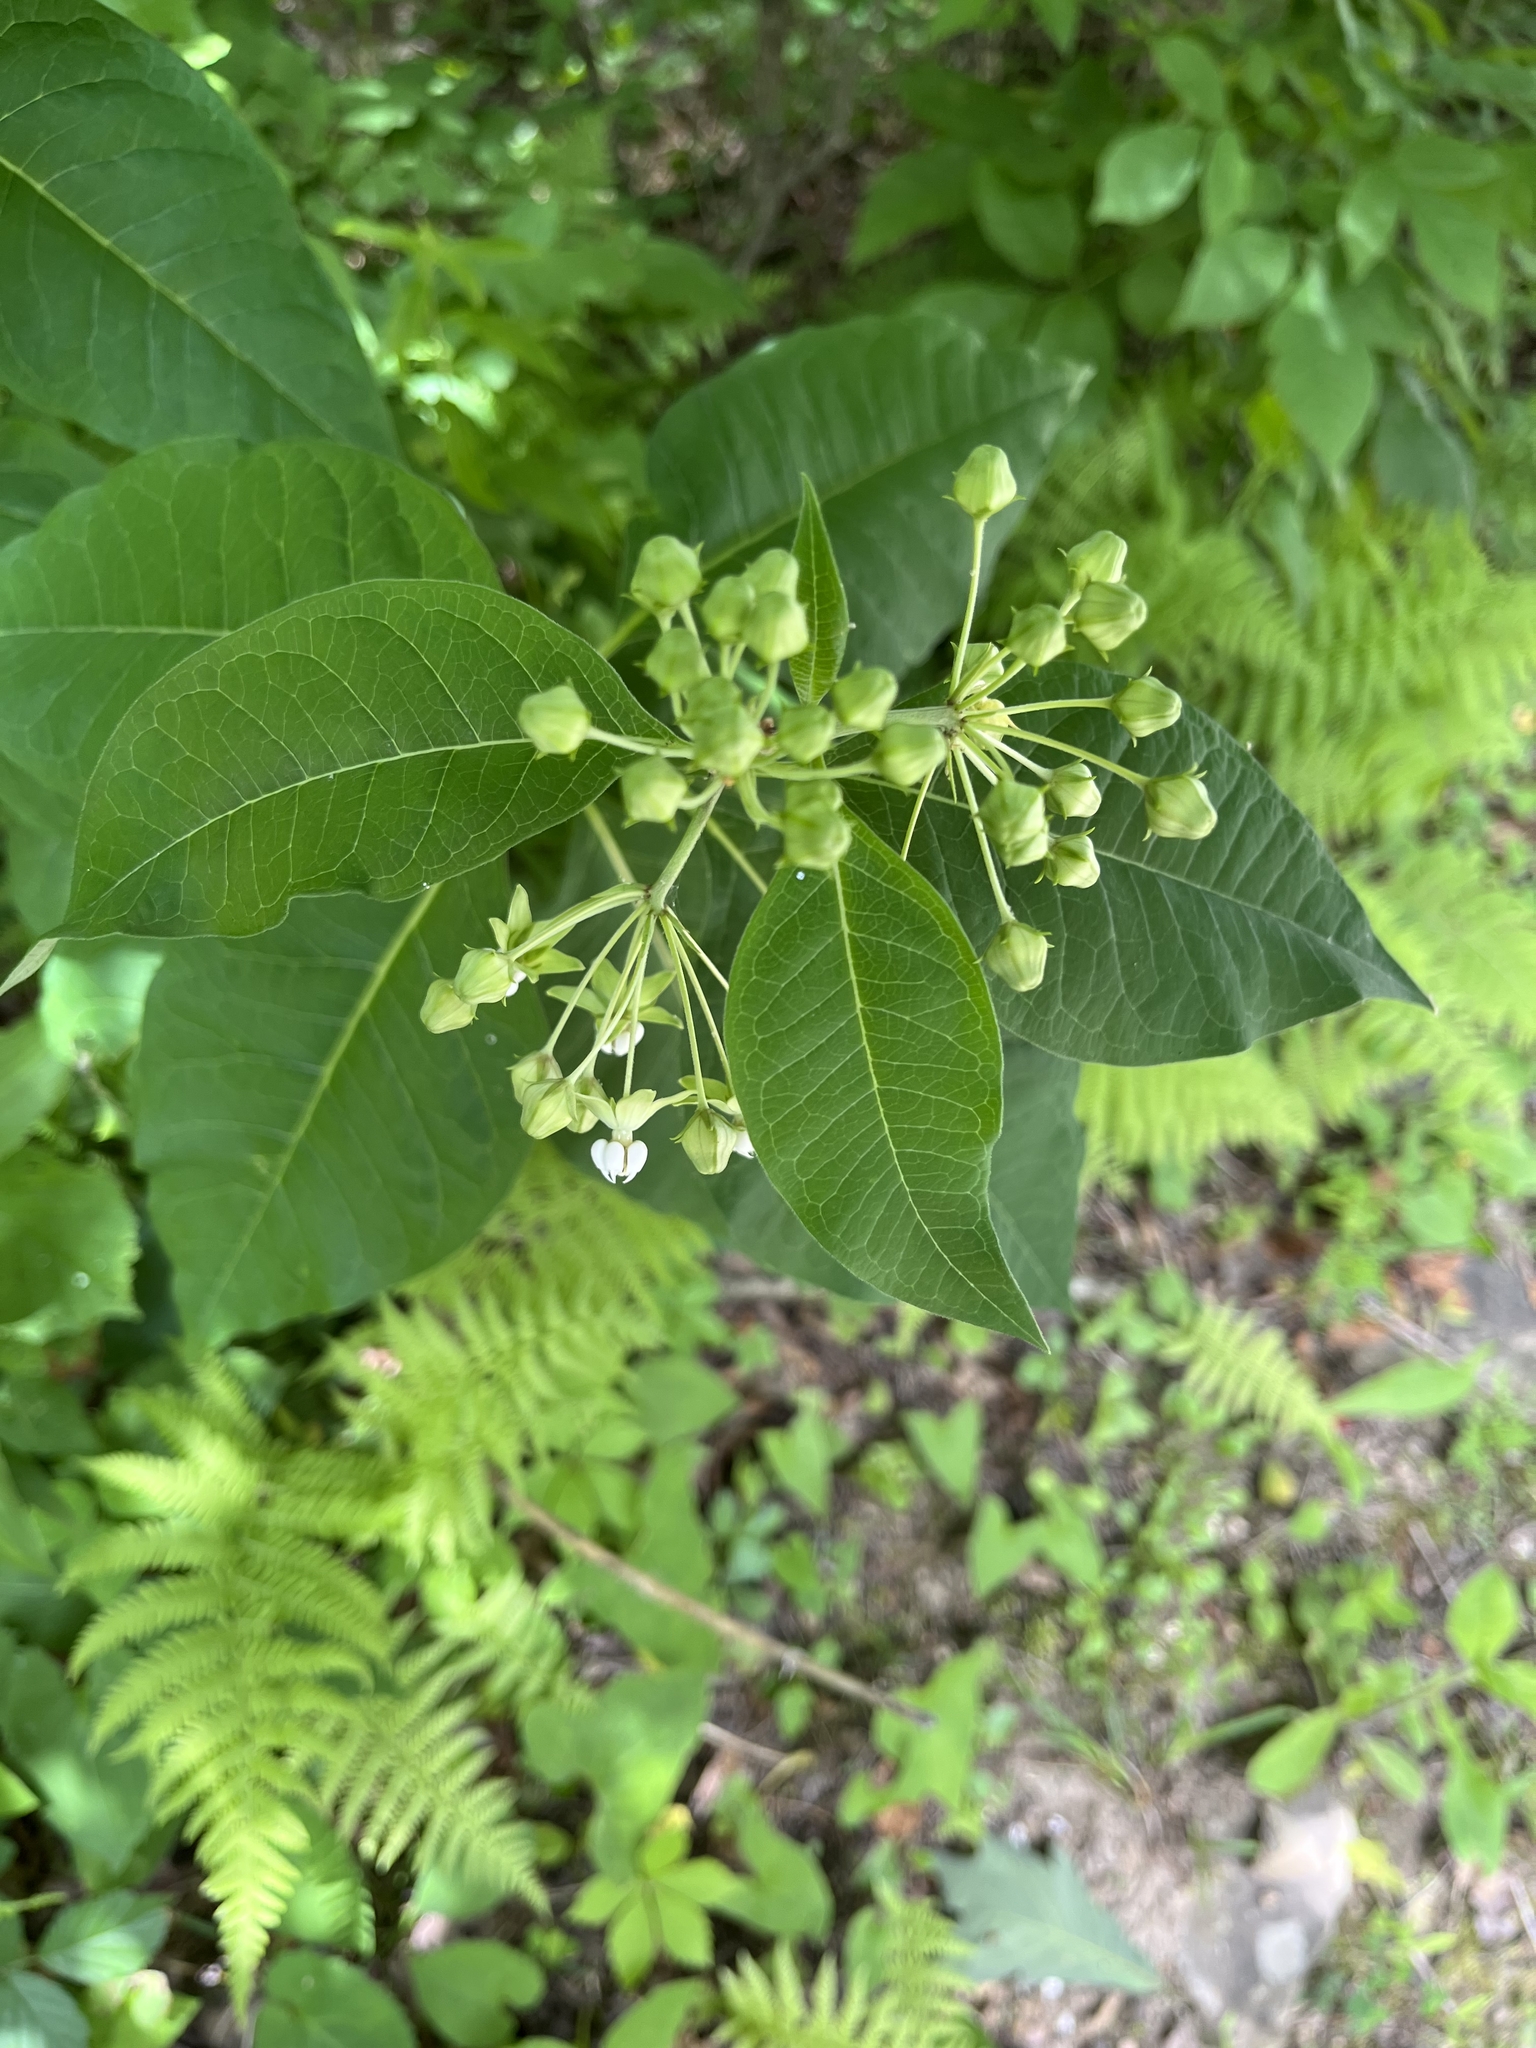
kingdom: Plantae
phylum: Tracheophyta
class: Magnoliopsida
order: Gentianales
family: Apocynaceae
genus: Asclepias
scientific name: Asclepias exaltata
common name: Poke milkweed
